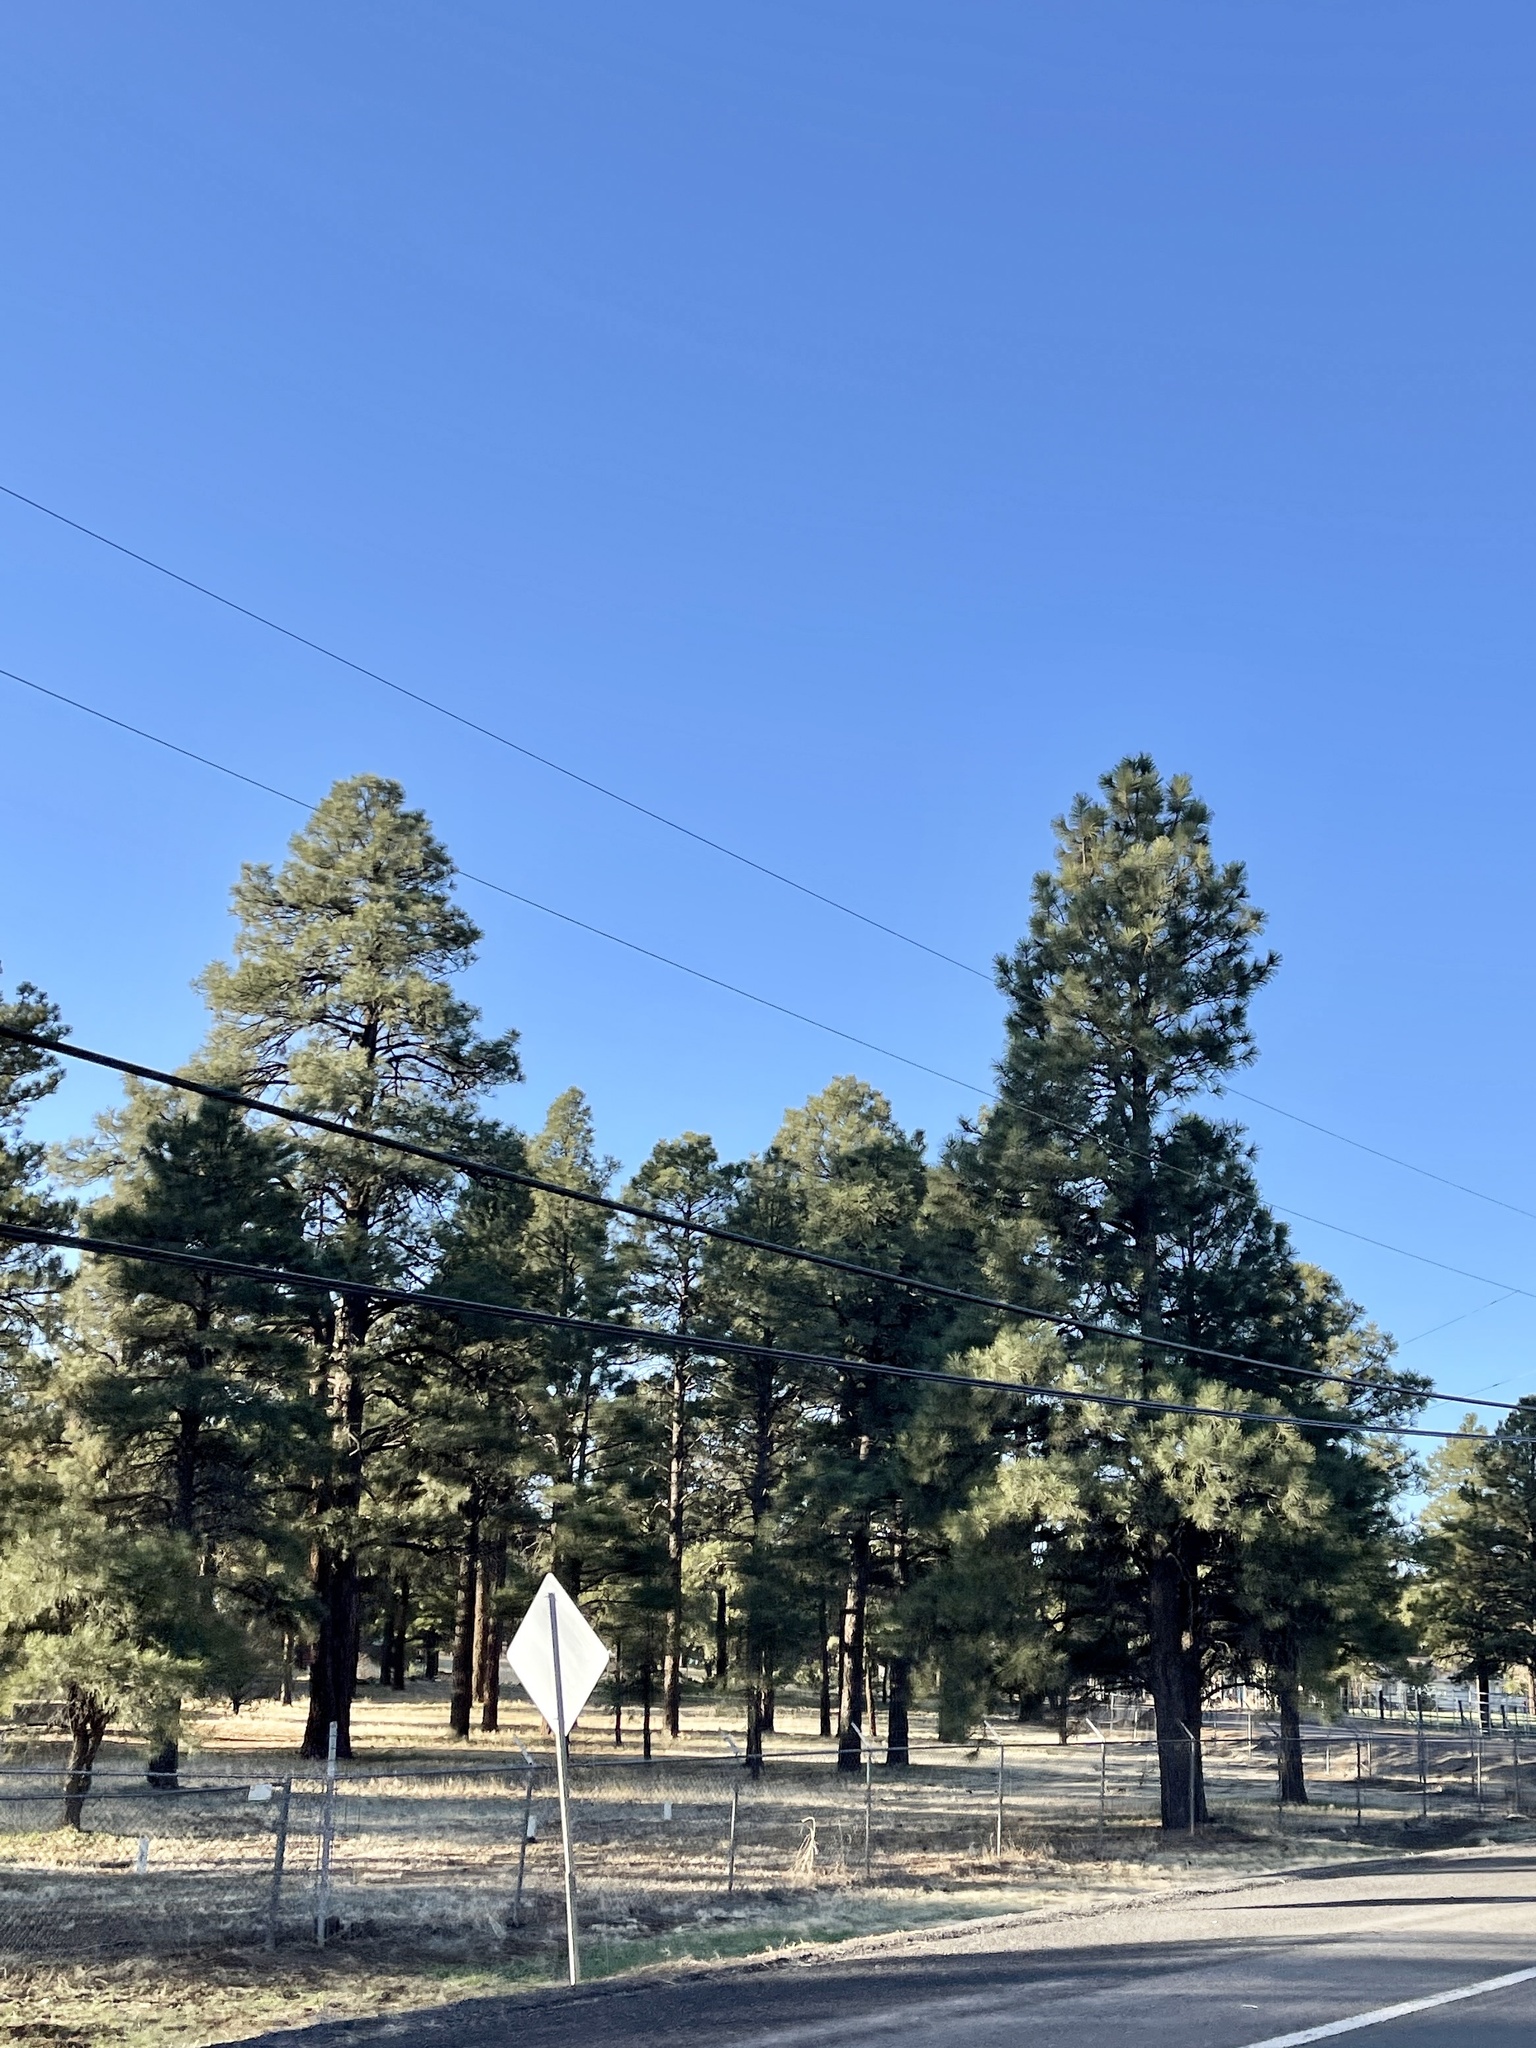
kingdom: Plantae
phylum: Tracheophyta
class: Pinopsida
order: Pinales
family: Pinaceae
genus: Pinus
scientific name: Pinus ponderosa
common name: Western yellow-pine
